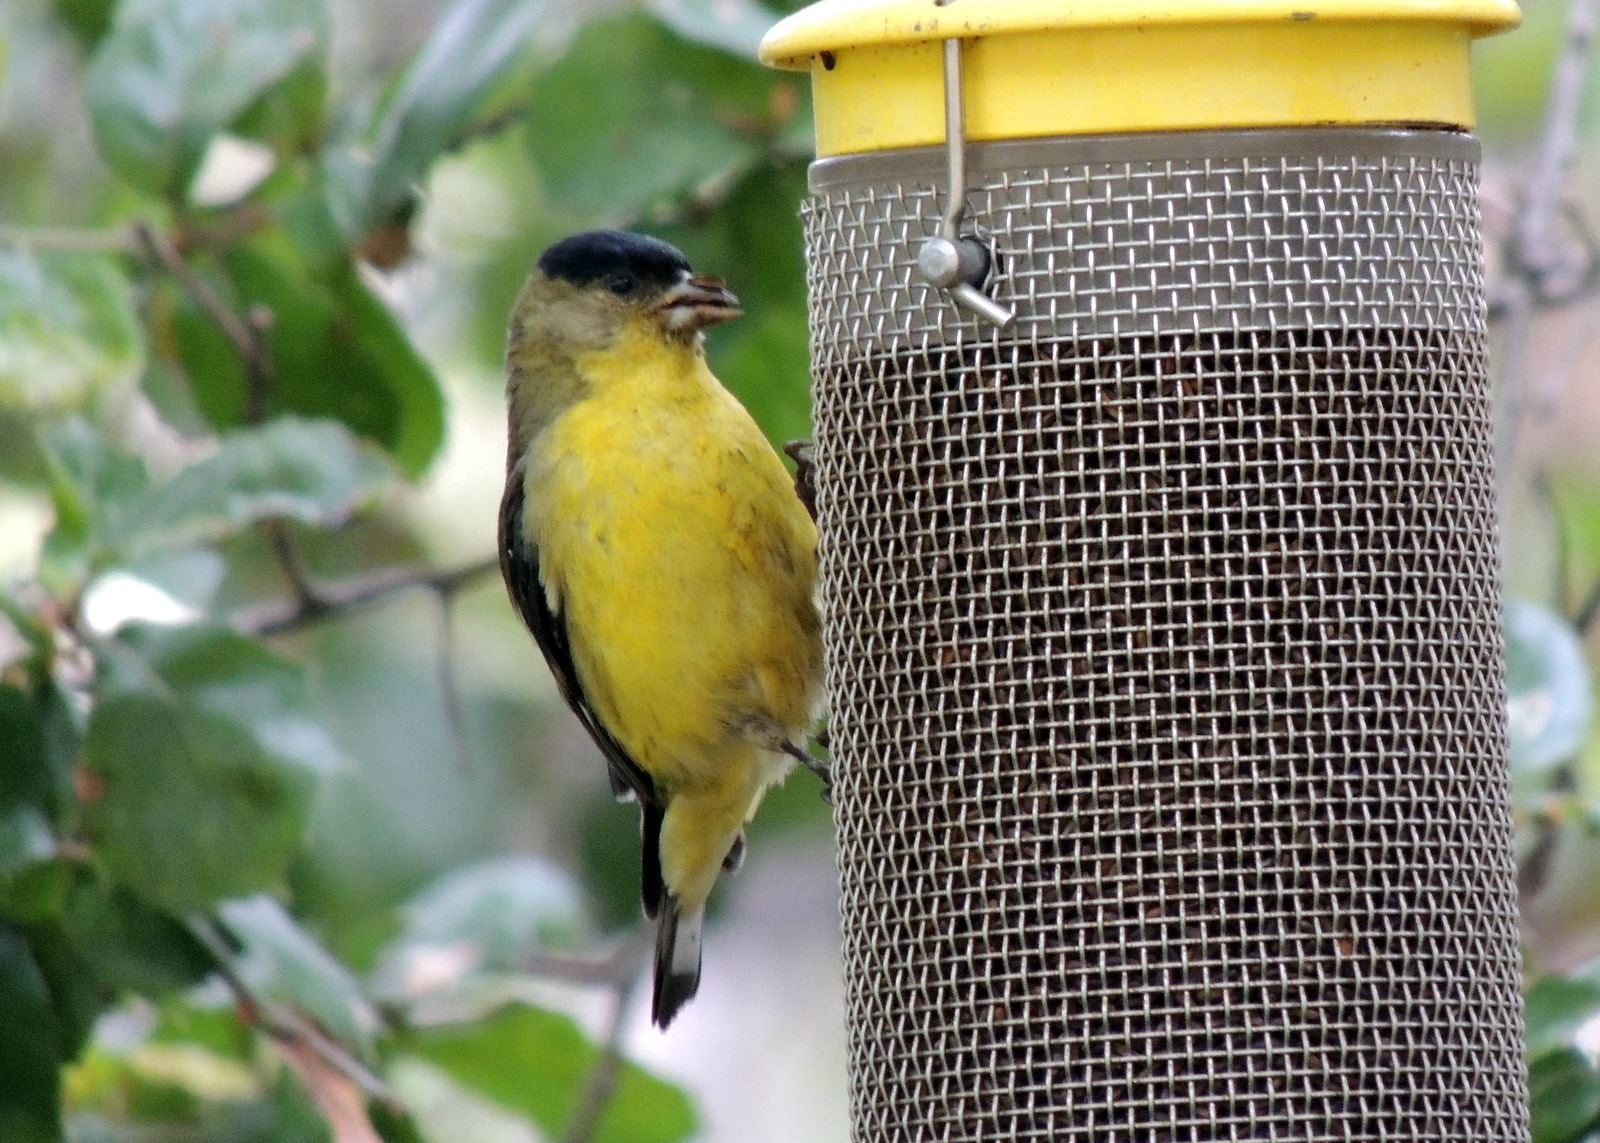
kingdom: Animalia
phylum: Chordata
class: Aves
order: Passeriformes
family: Fringillidae
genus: Spinus
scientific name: Spinus psaltria
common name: Lesser goldfinch
